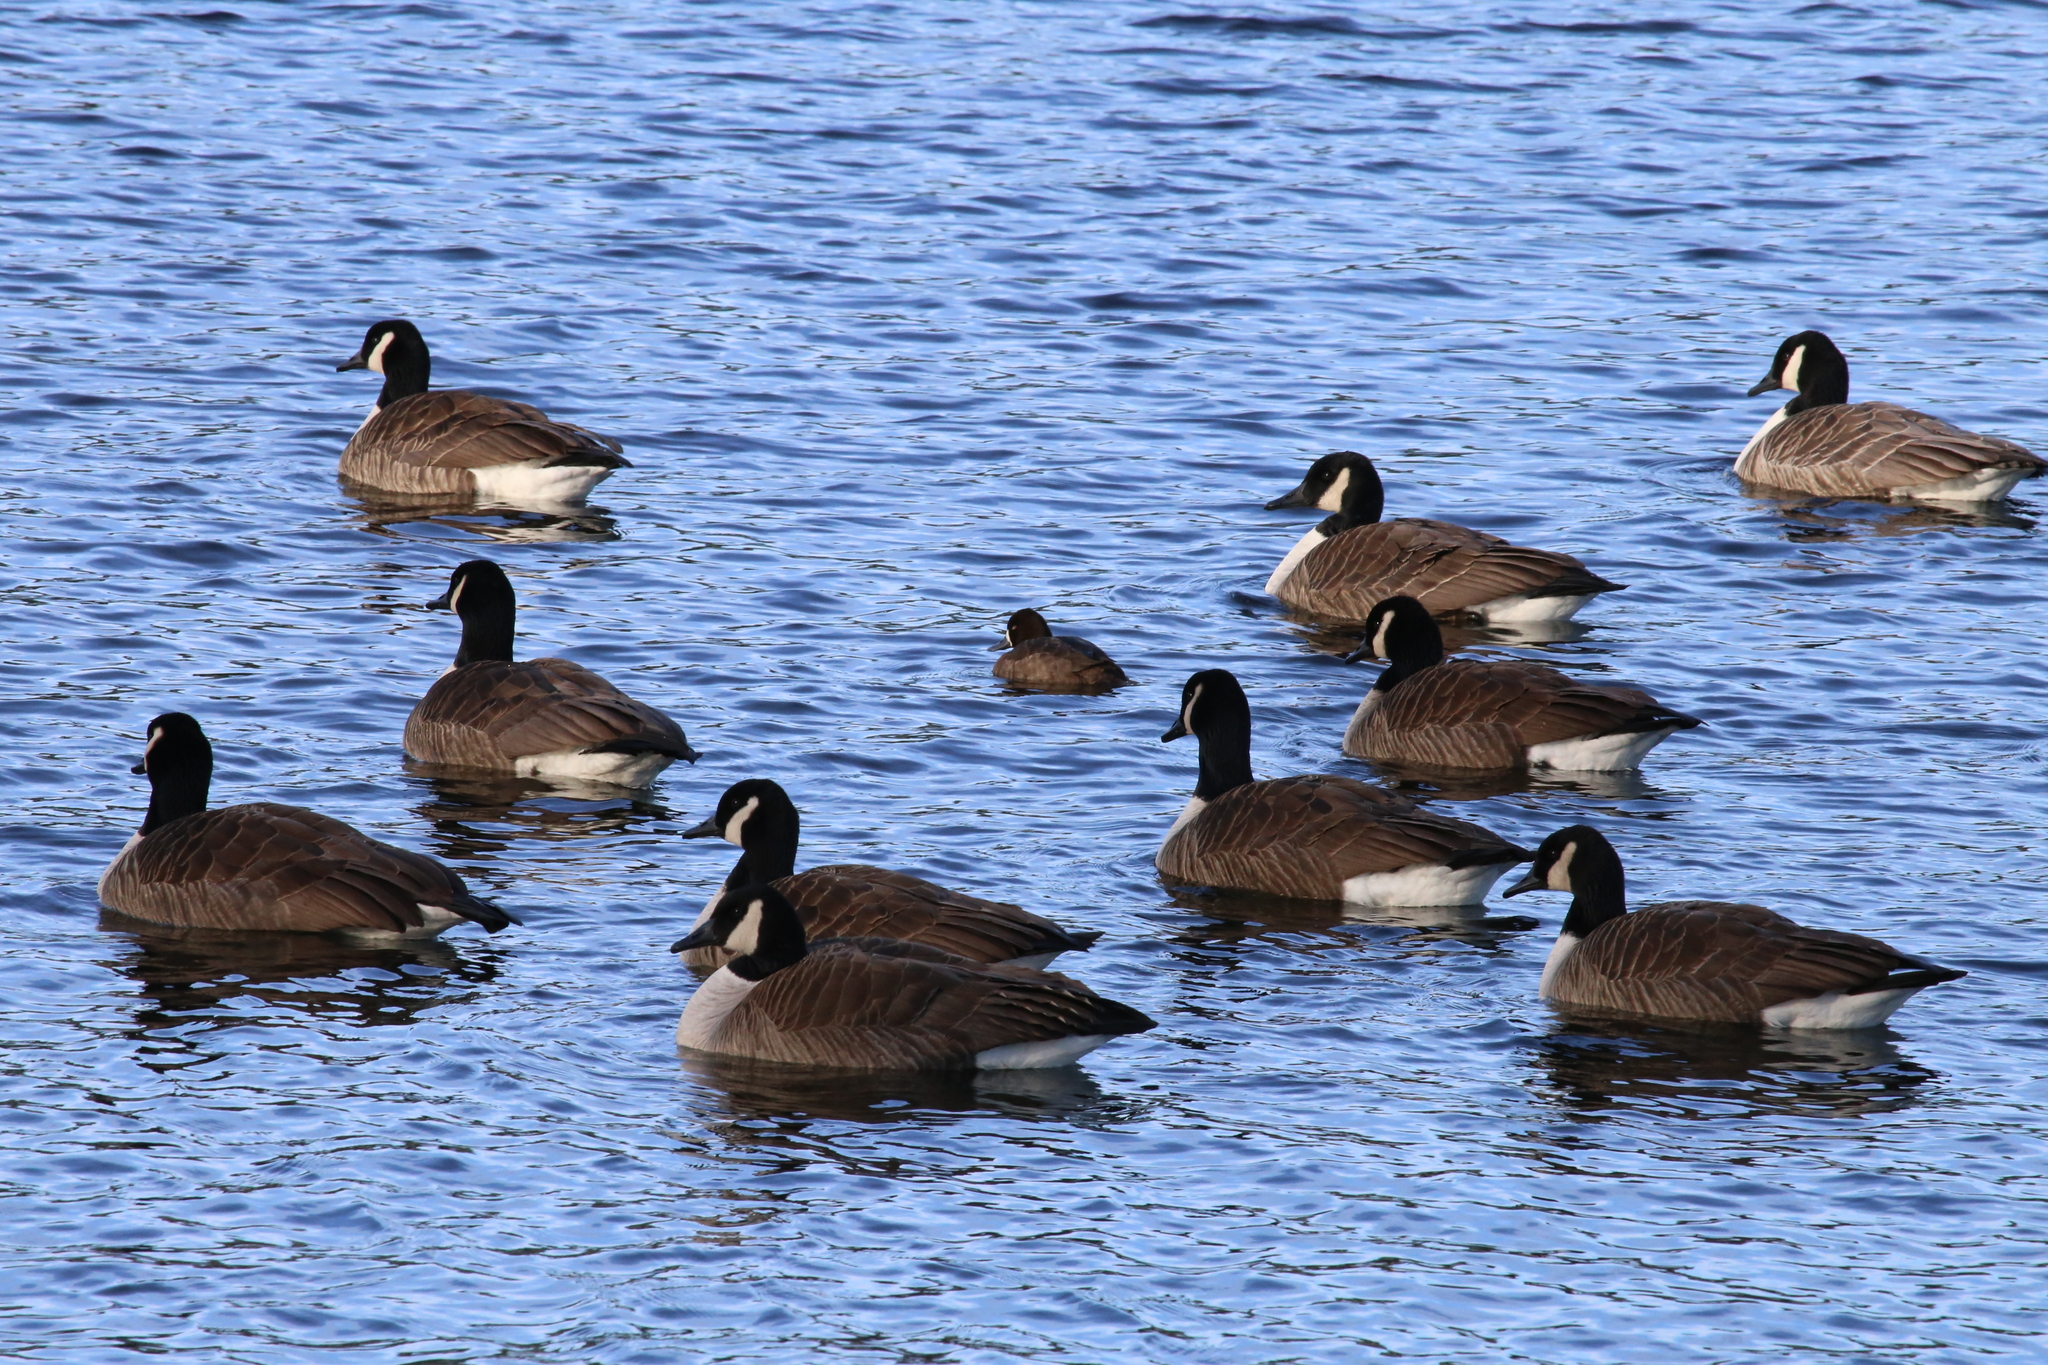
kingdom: Animalia
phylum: Chordata
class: Aves
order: Anseriformes
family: Anatidae
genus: Branta
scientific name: Branta canadensis
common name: Canada goose
